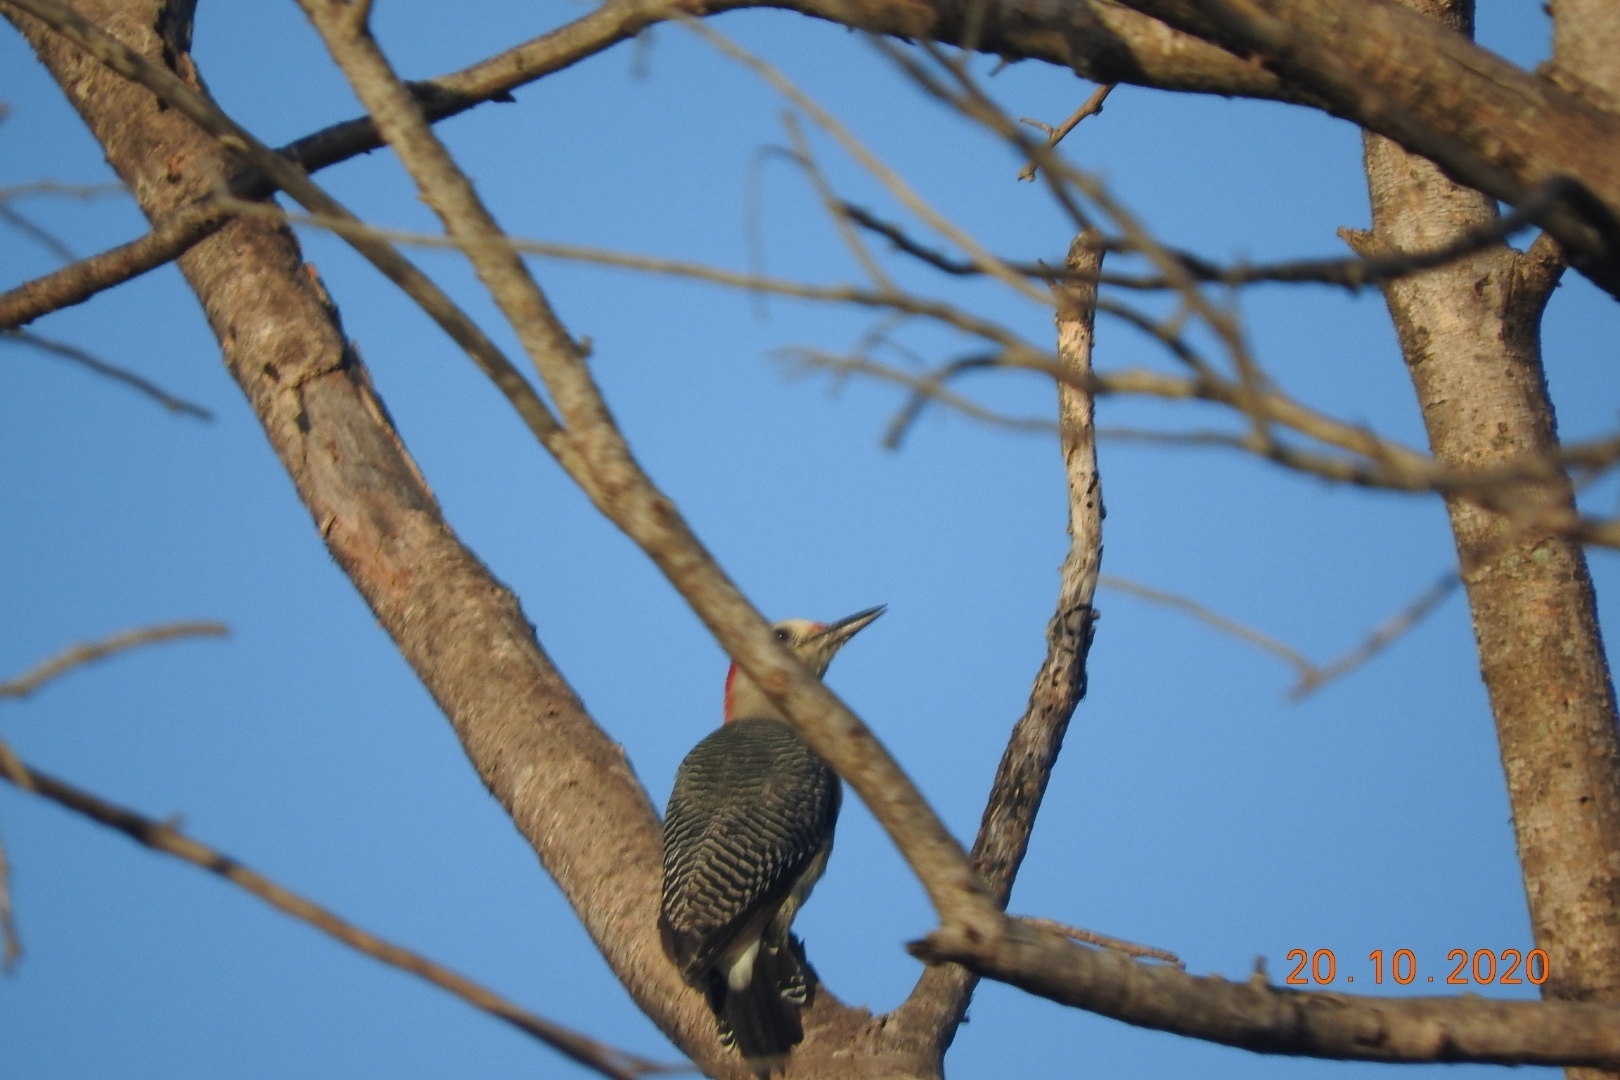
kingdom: Animalia
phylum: Chordata
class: Aves
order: Piciformes
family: Picidae
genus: Melanerpes
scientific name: Melanerpes aurifrons
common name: Golden-fronted woodpecker
